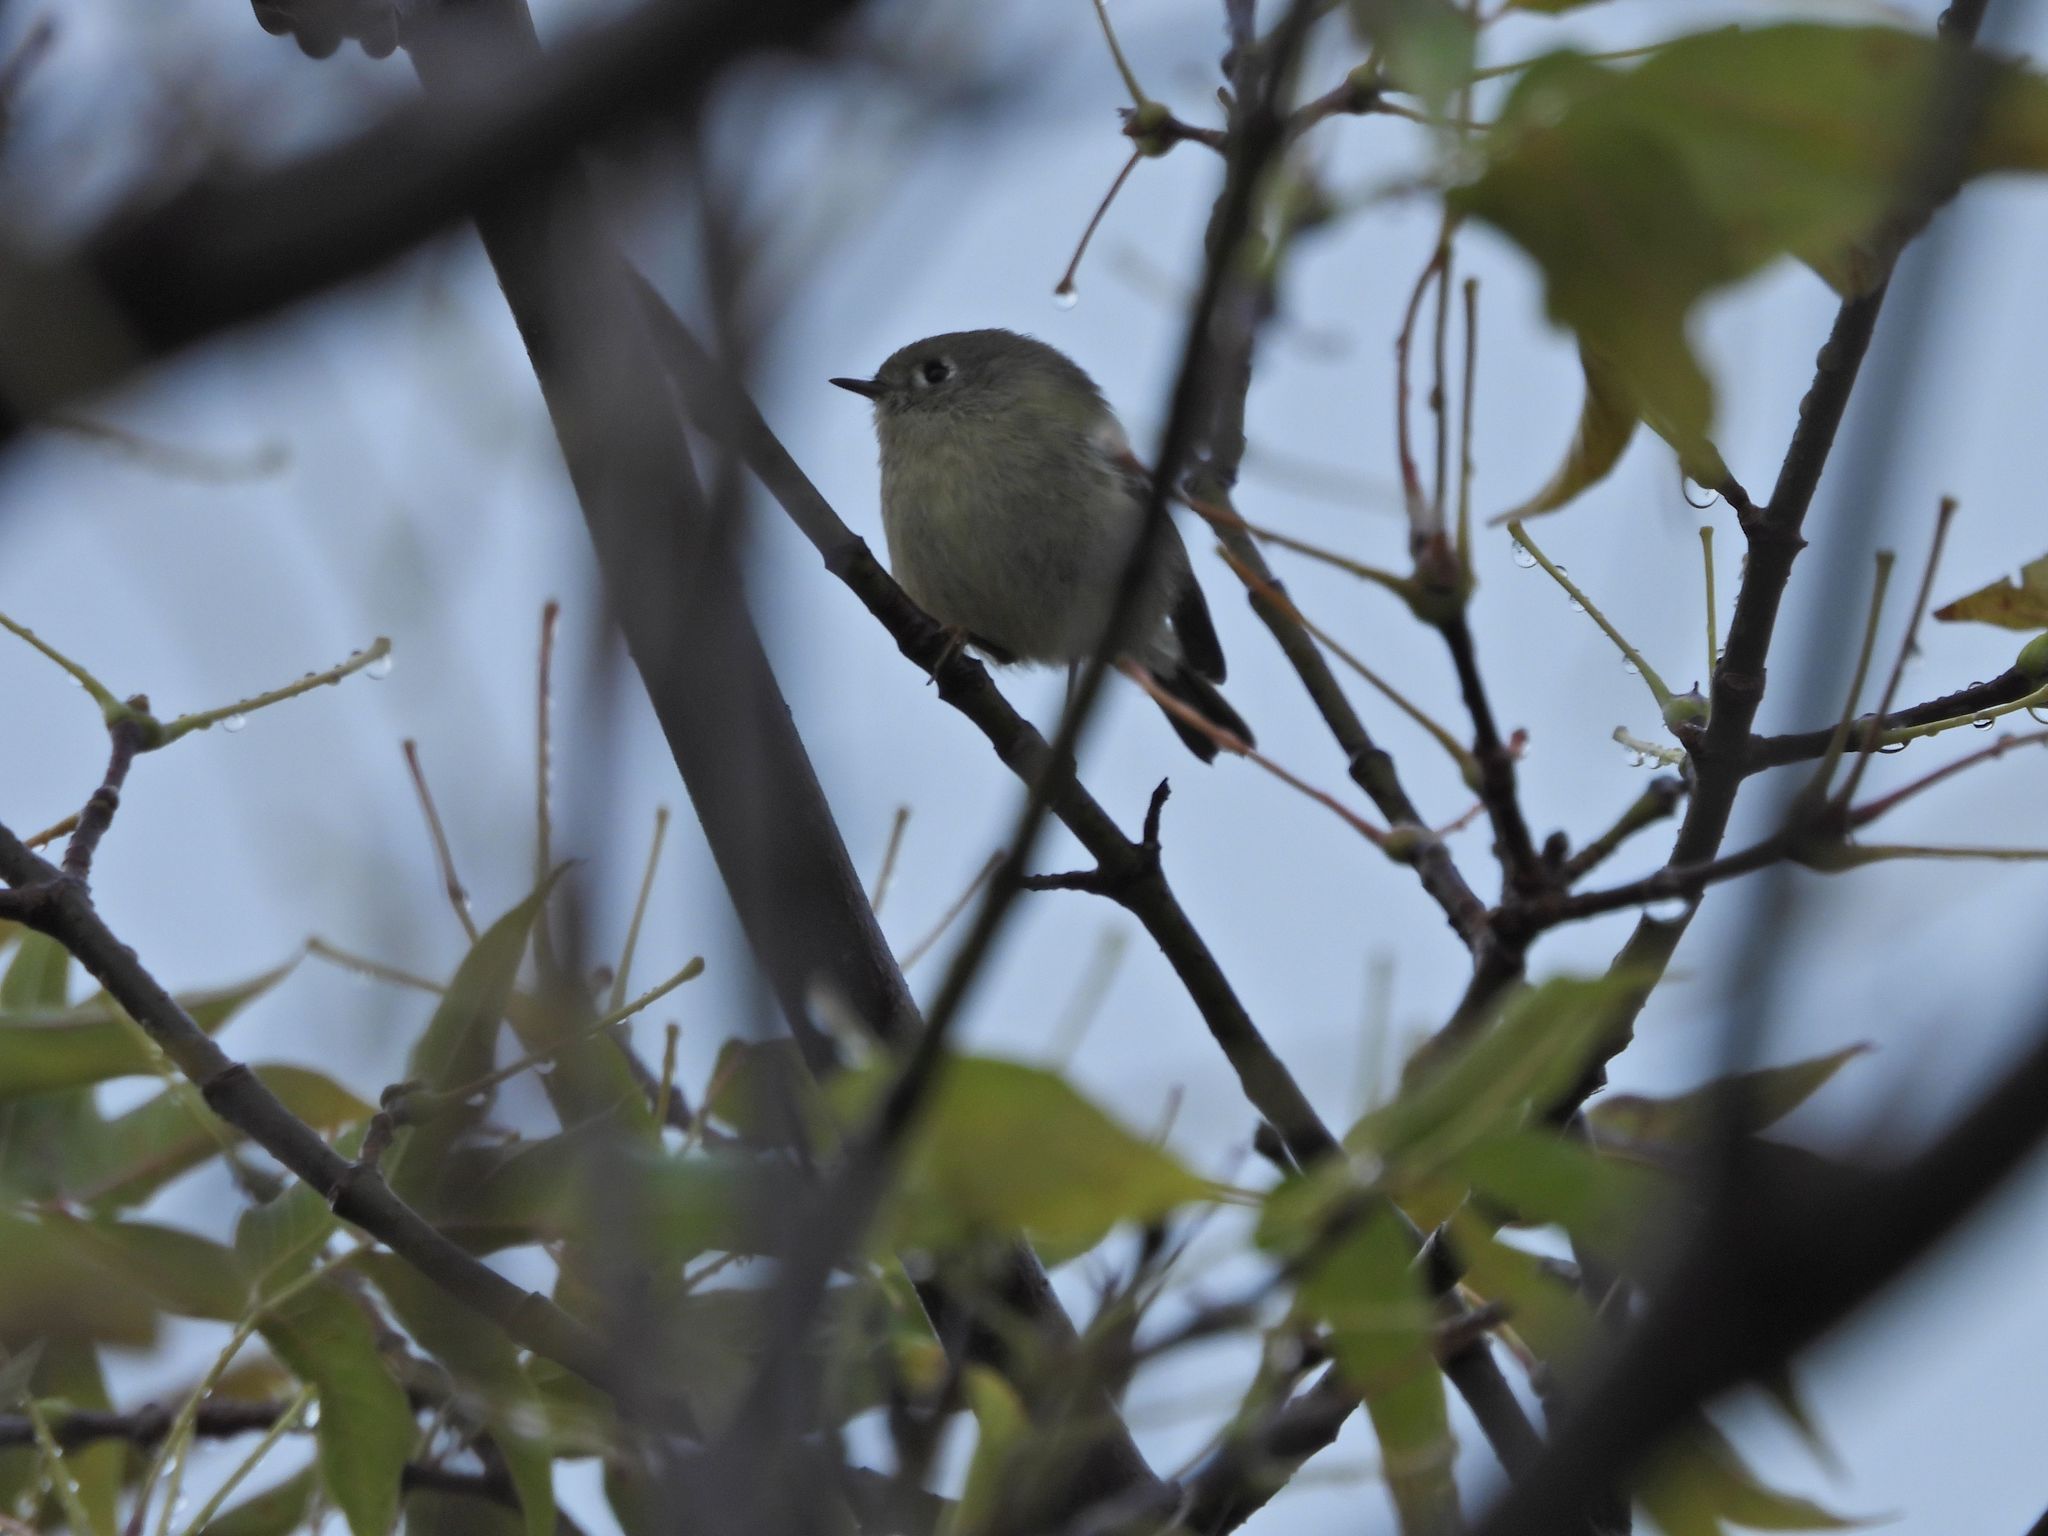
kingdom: Animalia
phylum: Chordata
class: Aves
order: Passeriformes
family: Regulidae
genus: Regulus
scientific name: Regulus calendula
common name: Ruby-crowned kinglet
